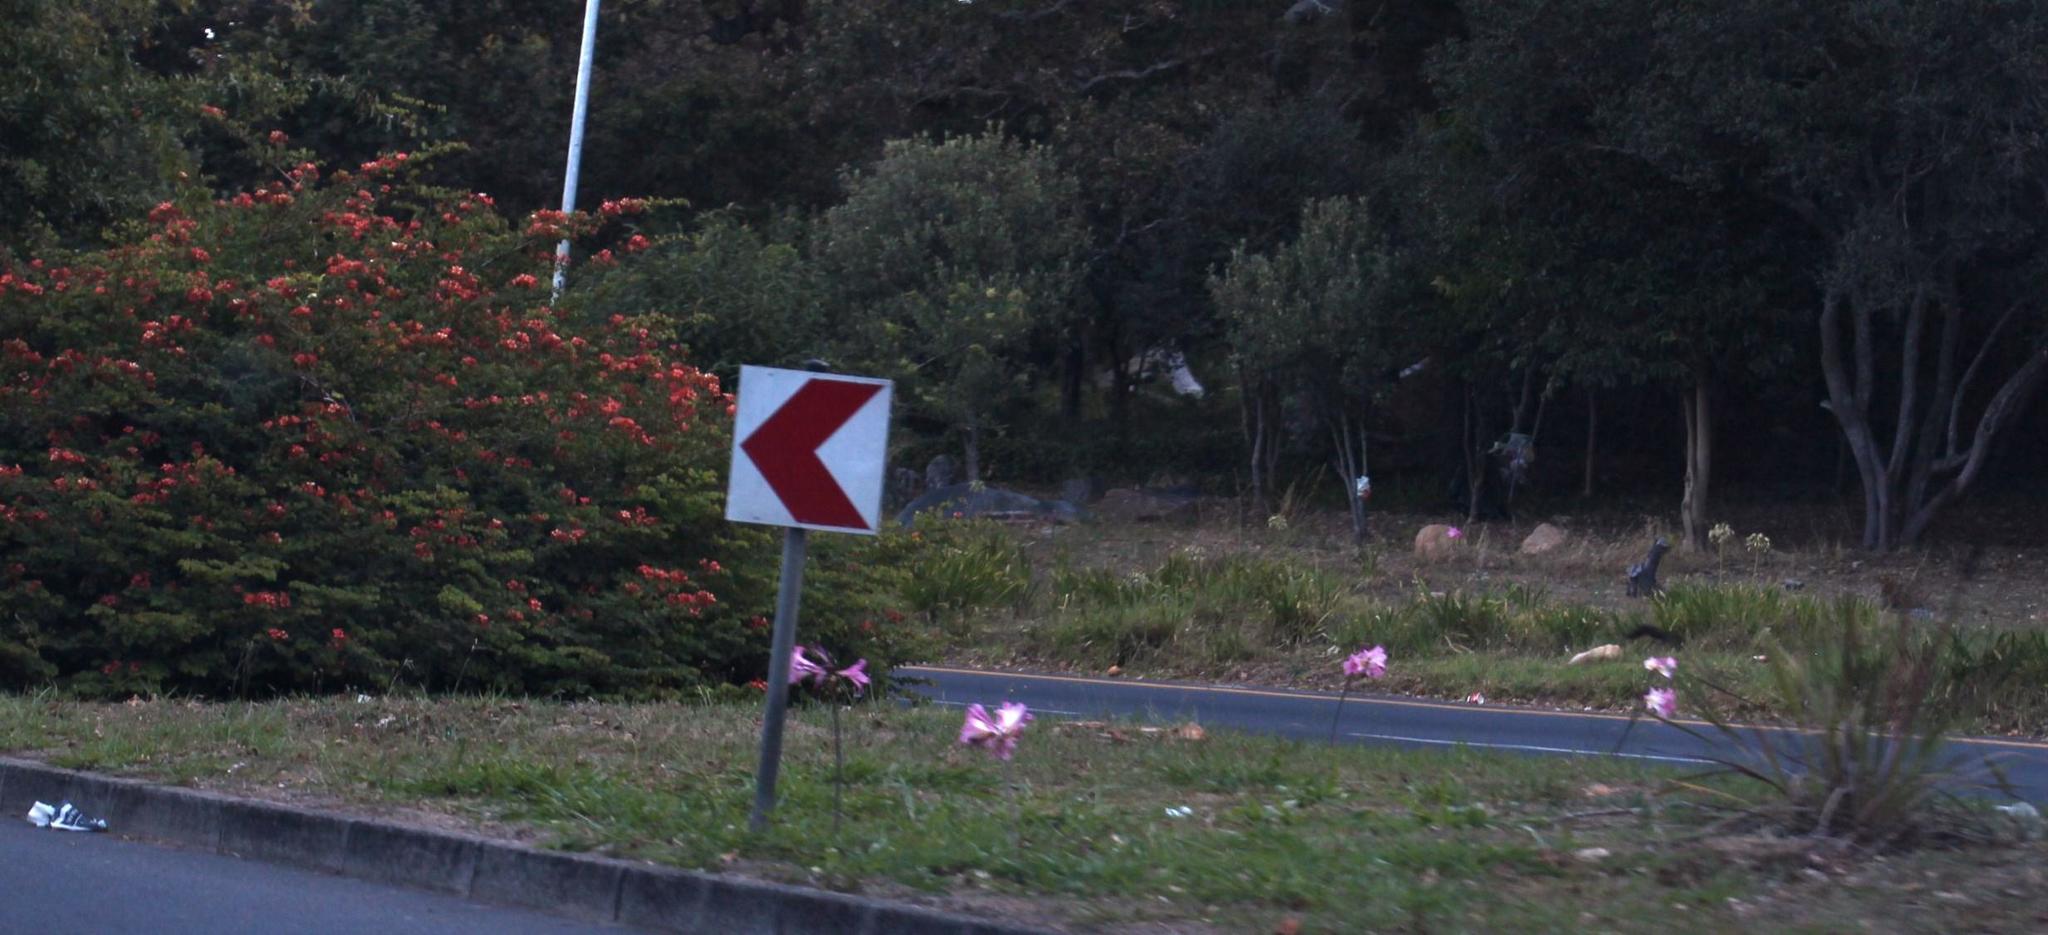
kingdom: Plantae
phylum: Tracheophyta
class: Liliopsida
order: Asparagales
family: Amaryllidaceae
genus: Amaryllis
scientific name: Amaryllis belladonna
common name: Jersey lily
